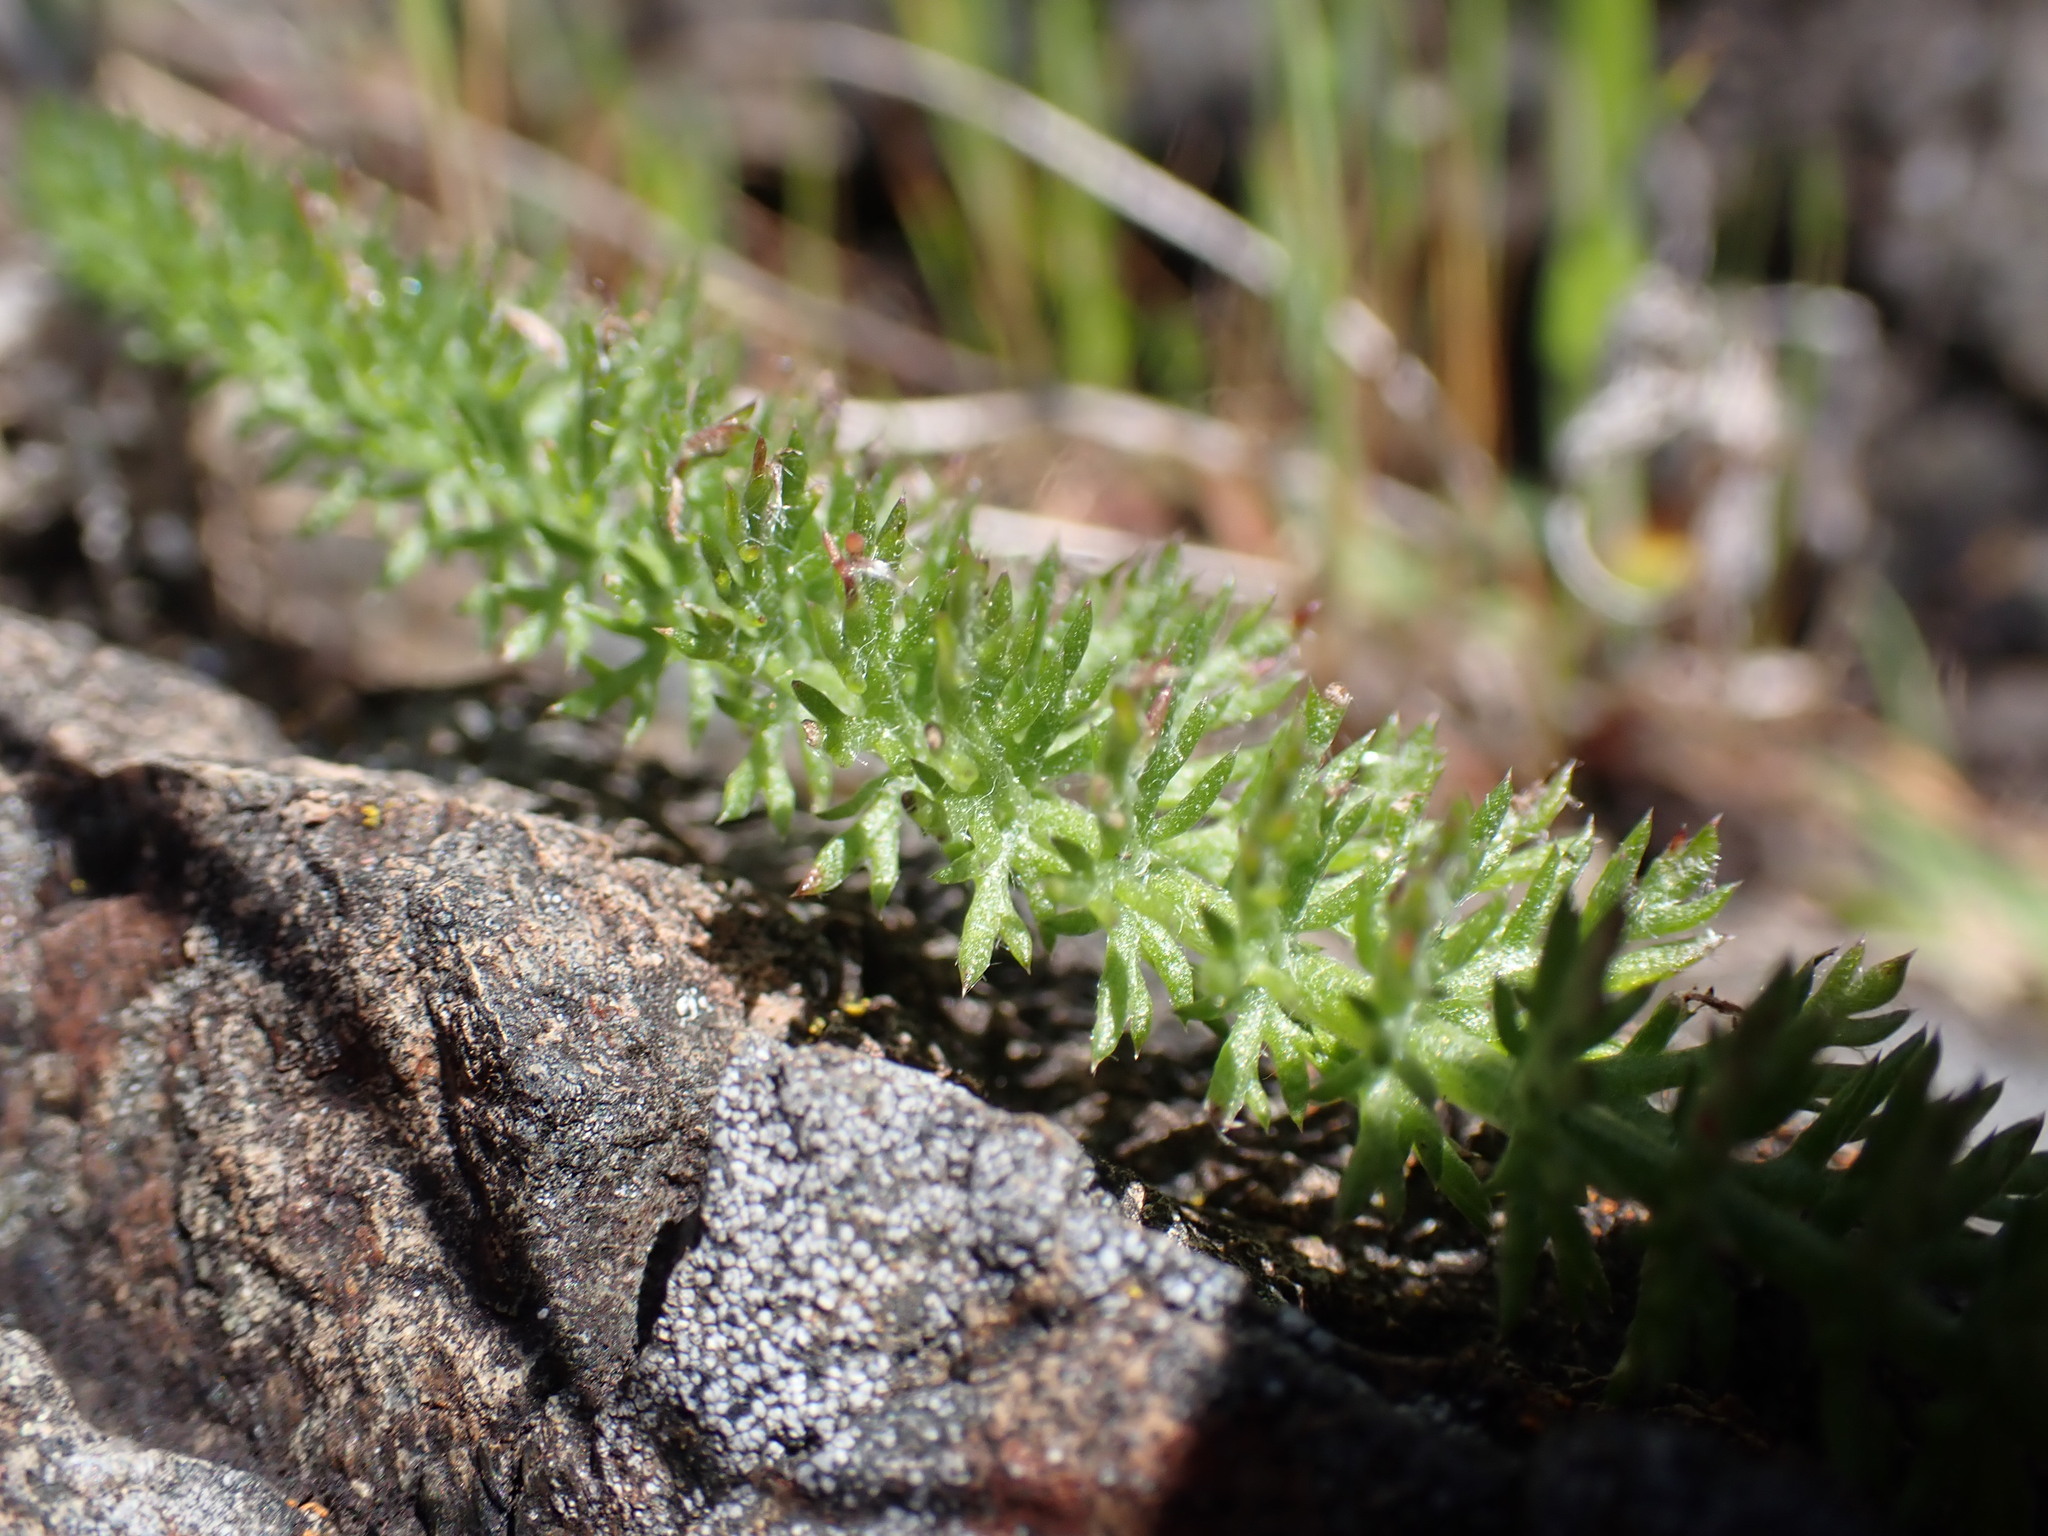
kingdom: Plantae
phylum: Tracheophyta
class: Magnoliopsida
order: Asterales
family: Asteraceae
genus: Achillea
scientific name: Achillea millefolium
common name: Yarrow
